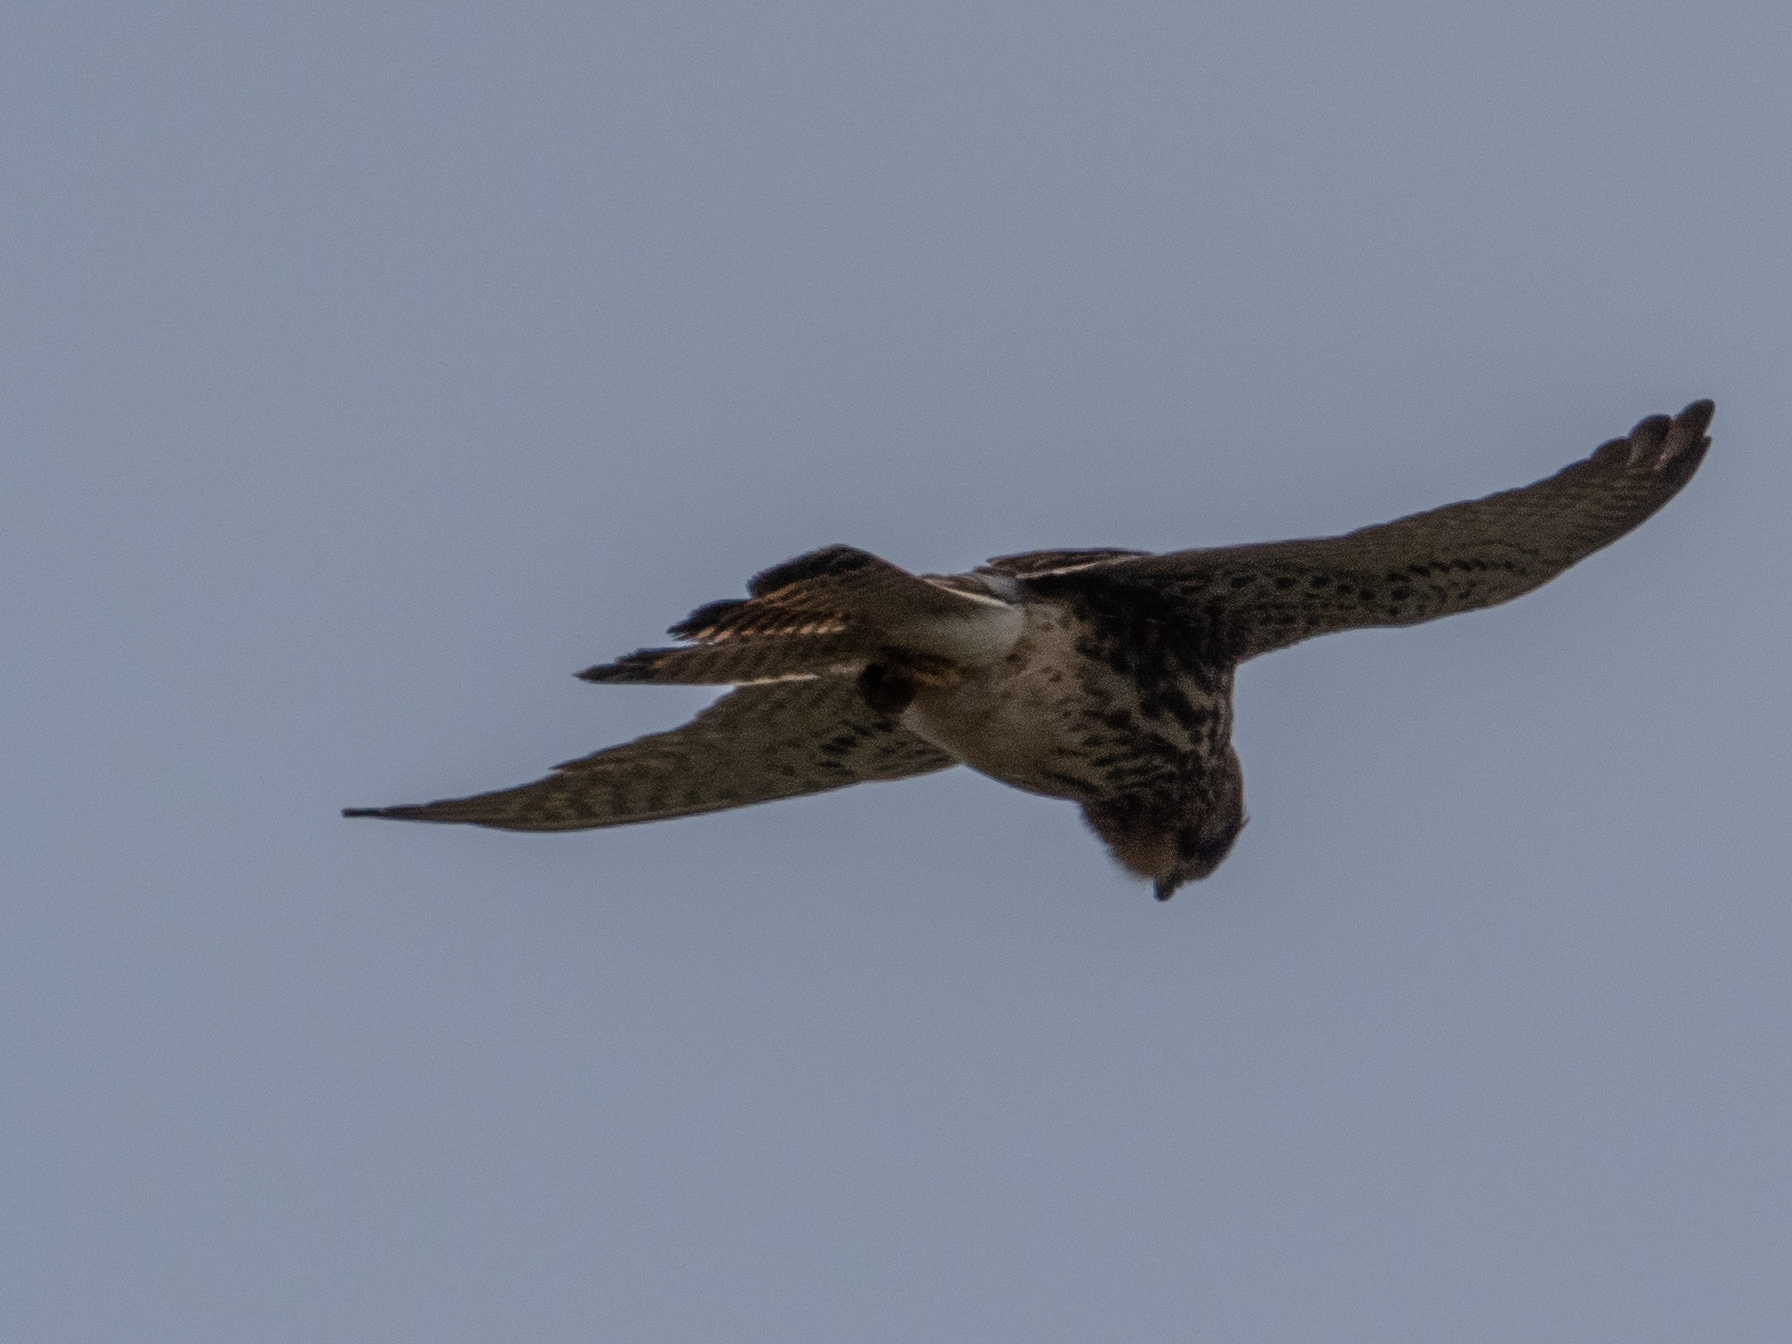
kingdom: Animalia
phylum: Chordata
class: Aves
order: Falconiformes
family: Falconidae
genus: Falco
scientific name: Falco tinnunculus
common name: Common kestrel
